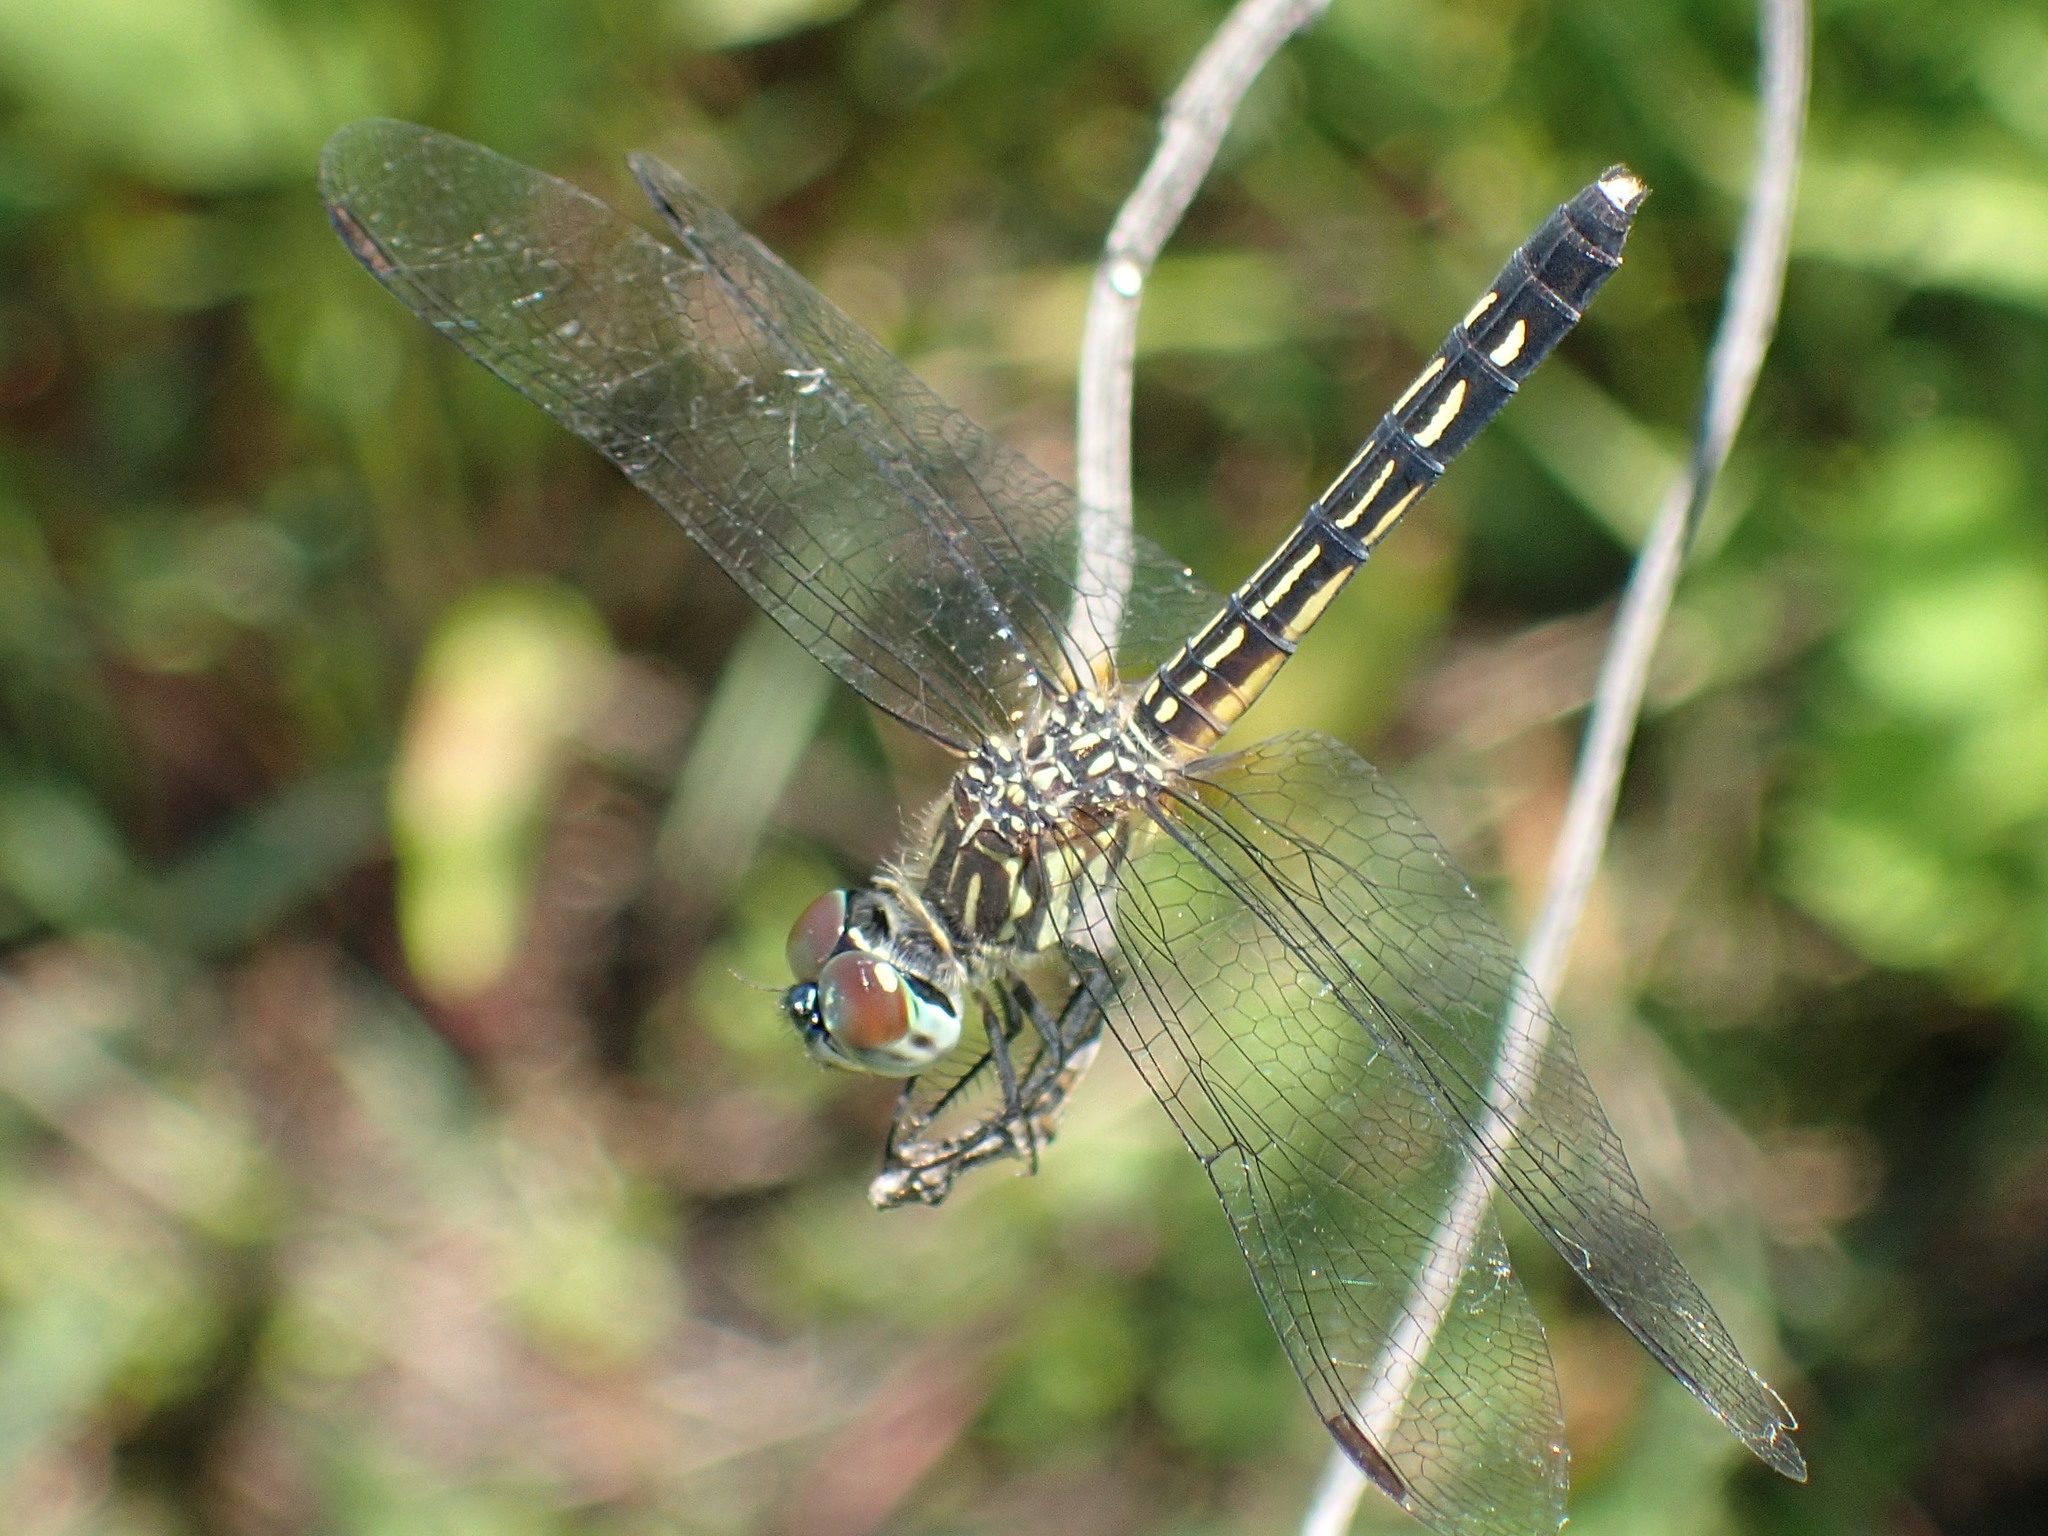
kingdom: Animalia
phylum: Arthropoda
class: Insecta
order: Odonata
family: Libellulidae
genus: Pachydiplax
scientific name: Pachydiplax longipennis
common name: Blue dasher
